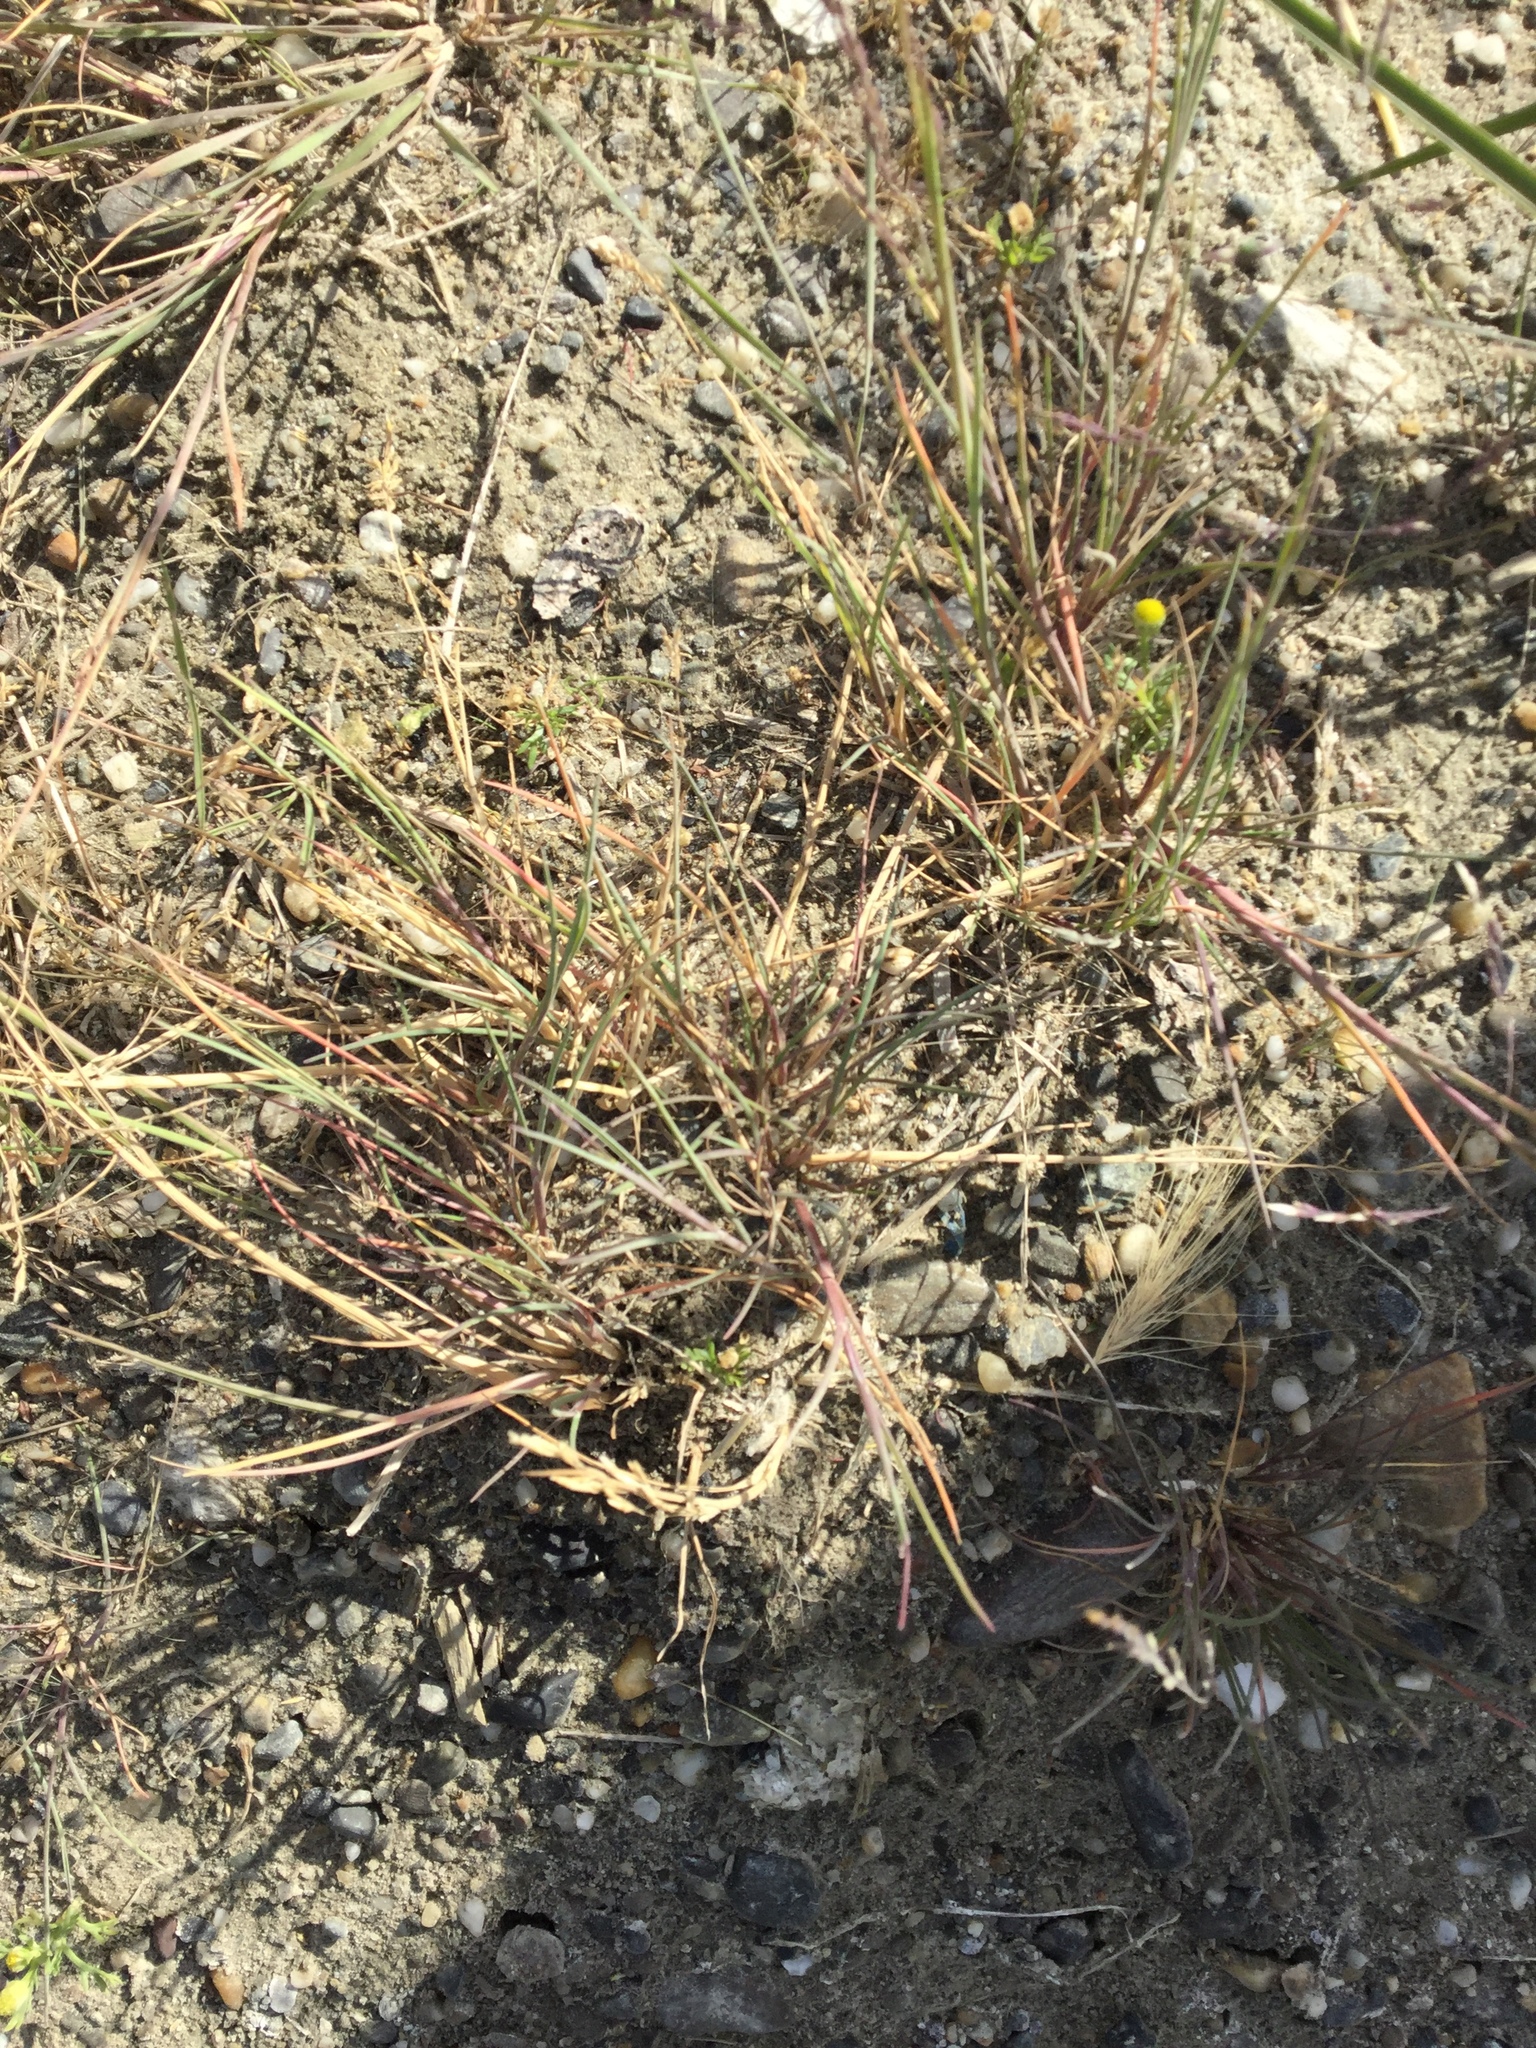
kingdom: Plantae
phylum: Tracheophyta
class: Liliopsida
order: Poales
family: Poaceae
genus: Hordeum
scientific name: Hordeum jubatum
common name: Foxtail barley
